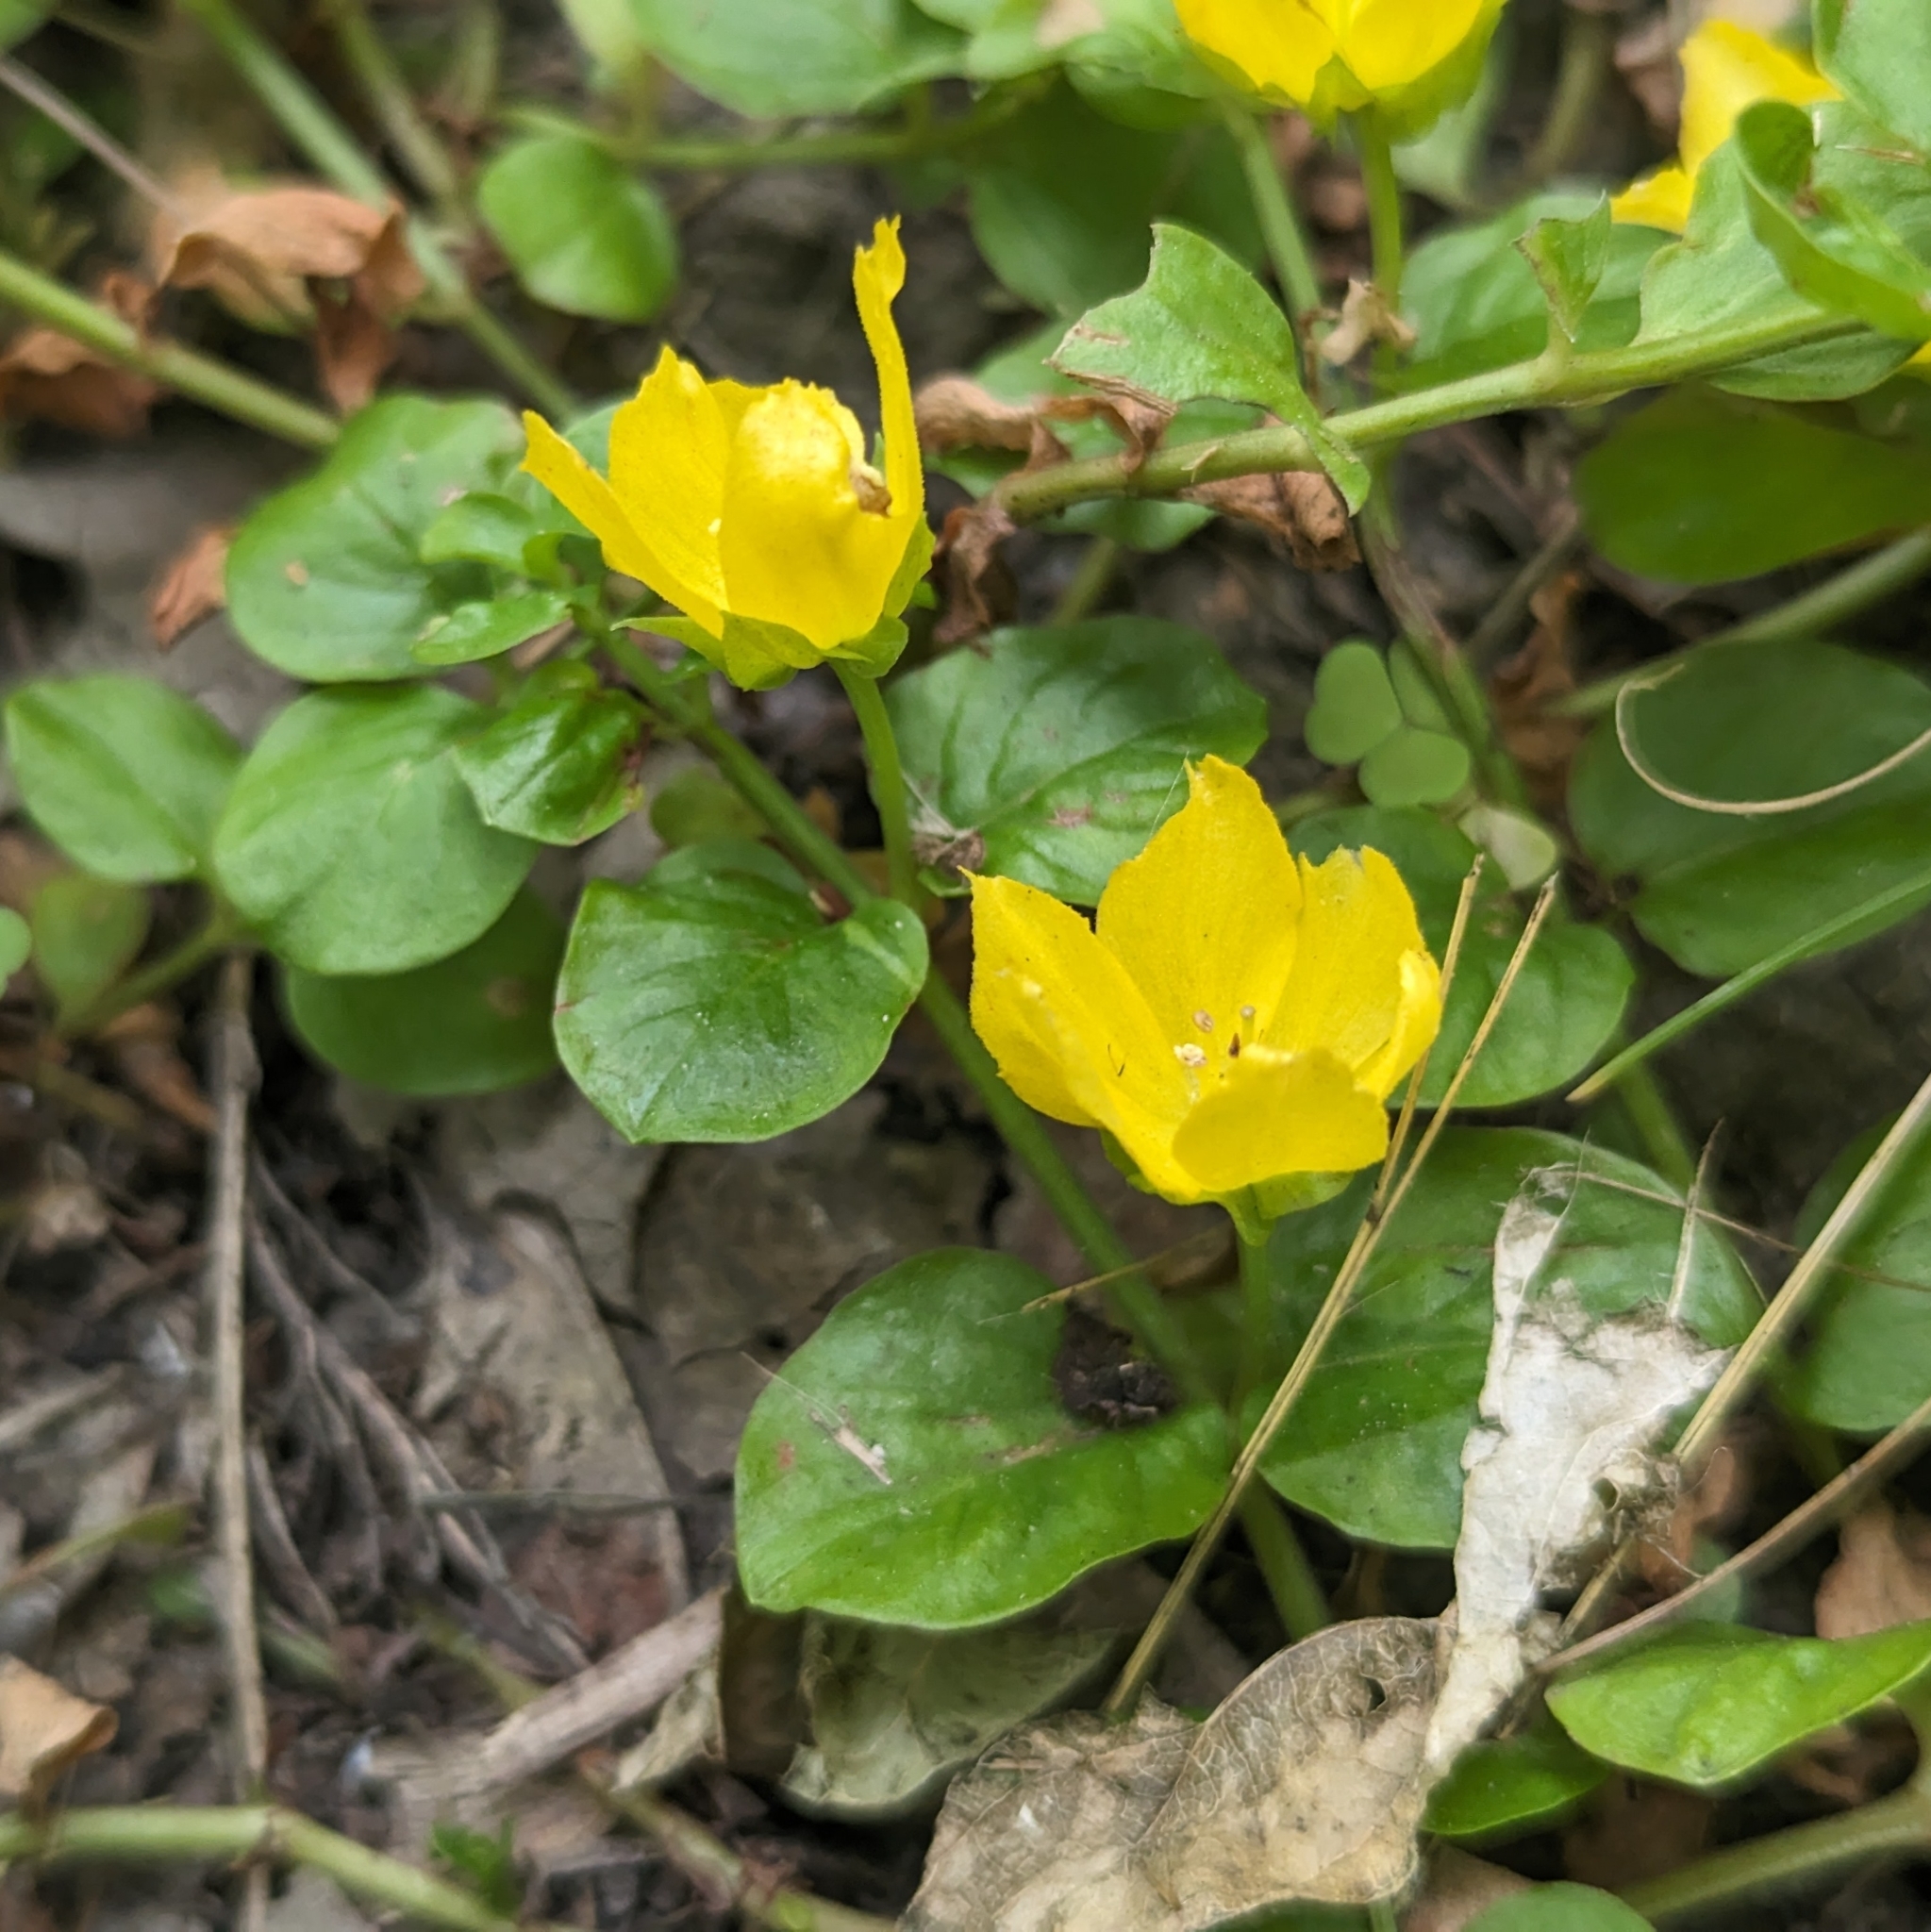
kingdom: Plantae
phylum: Tracheophyta
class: Magnoliopsida
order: Ericales
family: Primulaceae
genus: Lysimachia
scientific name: Lysimachia nummularia
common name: Moneywort
